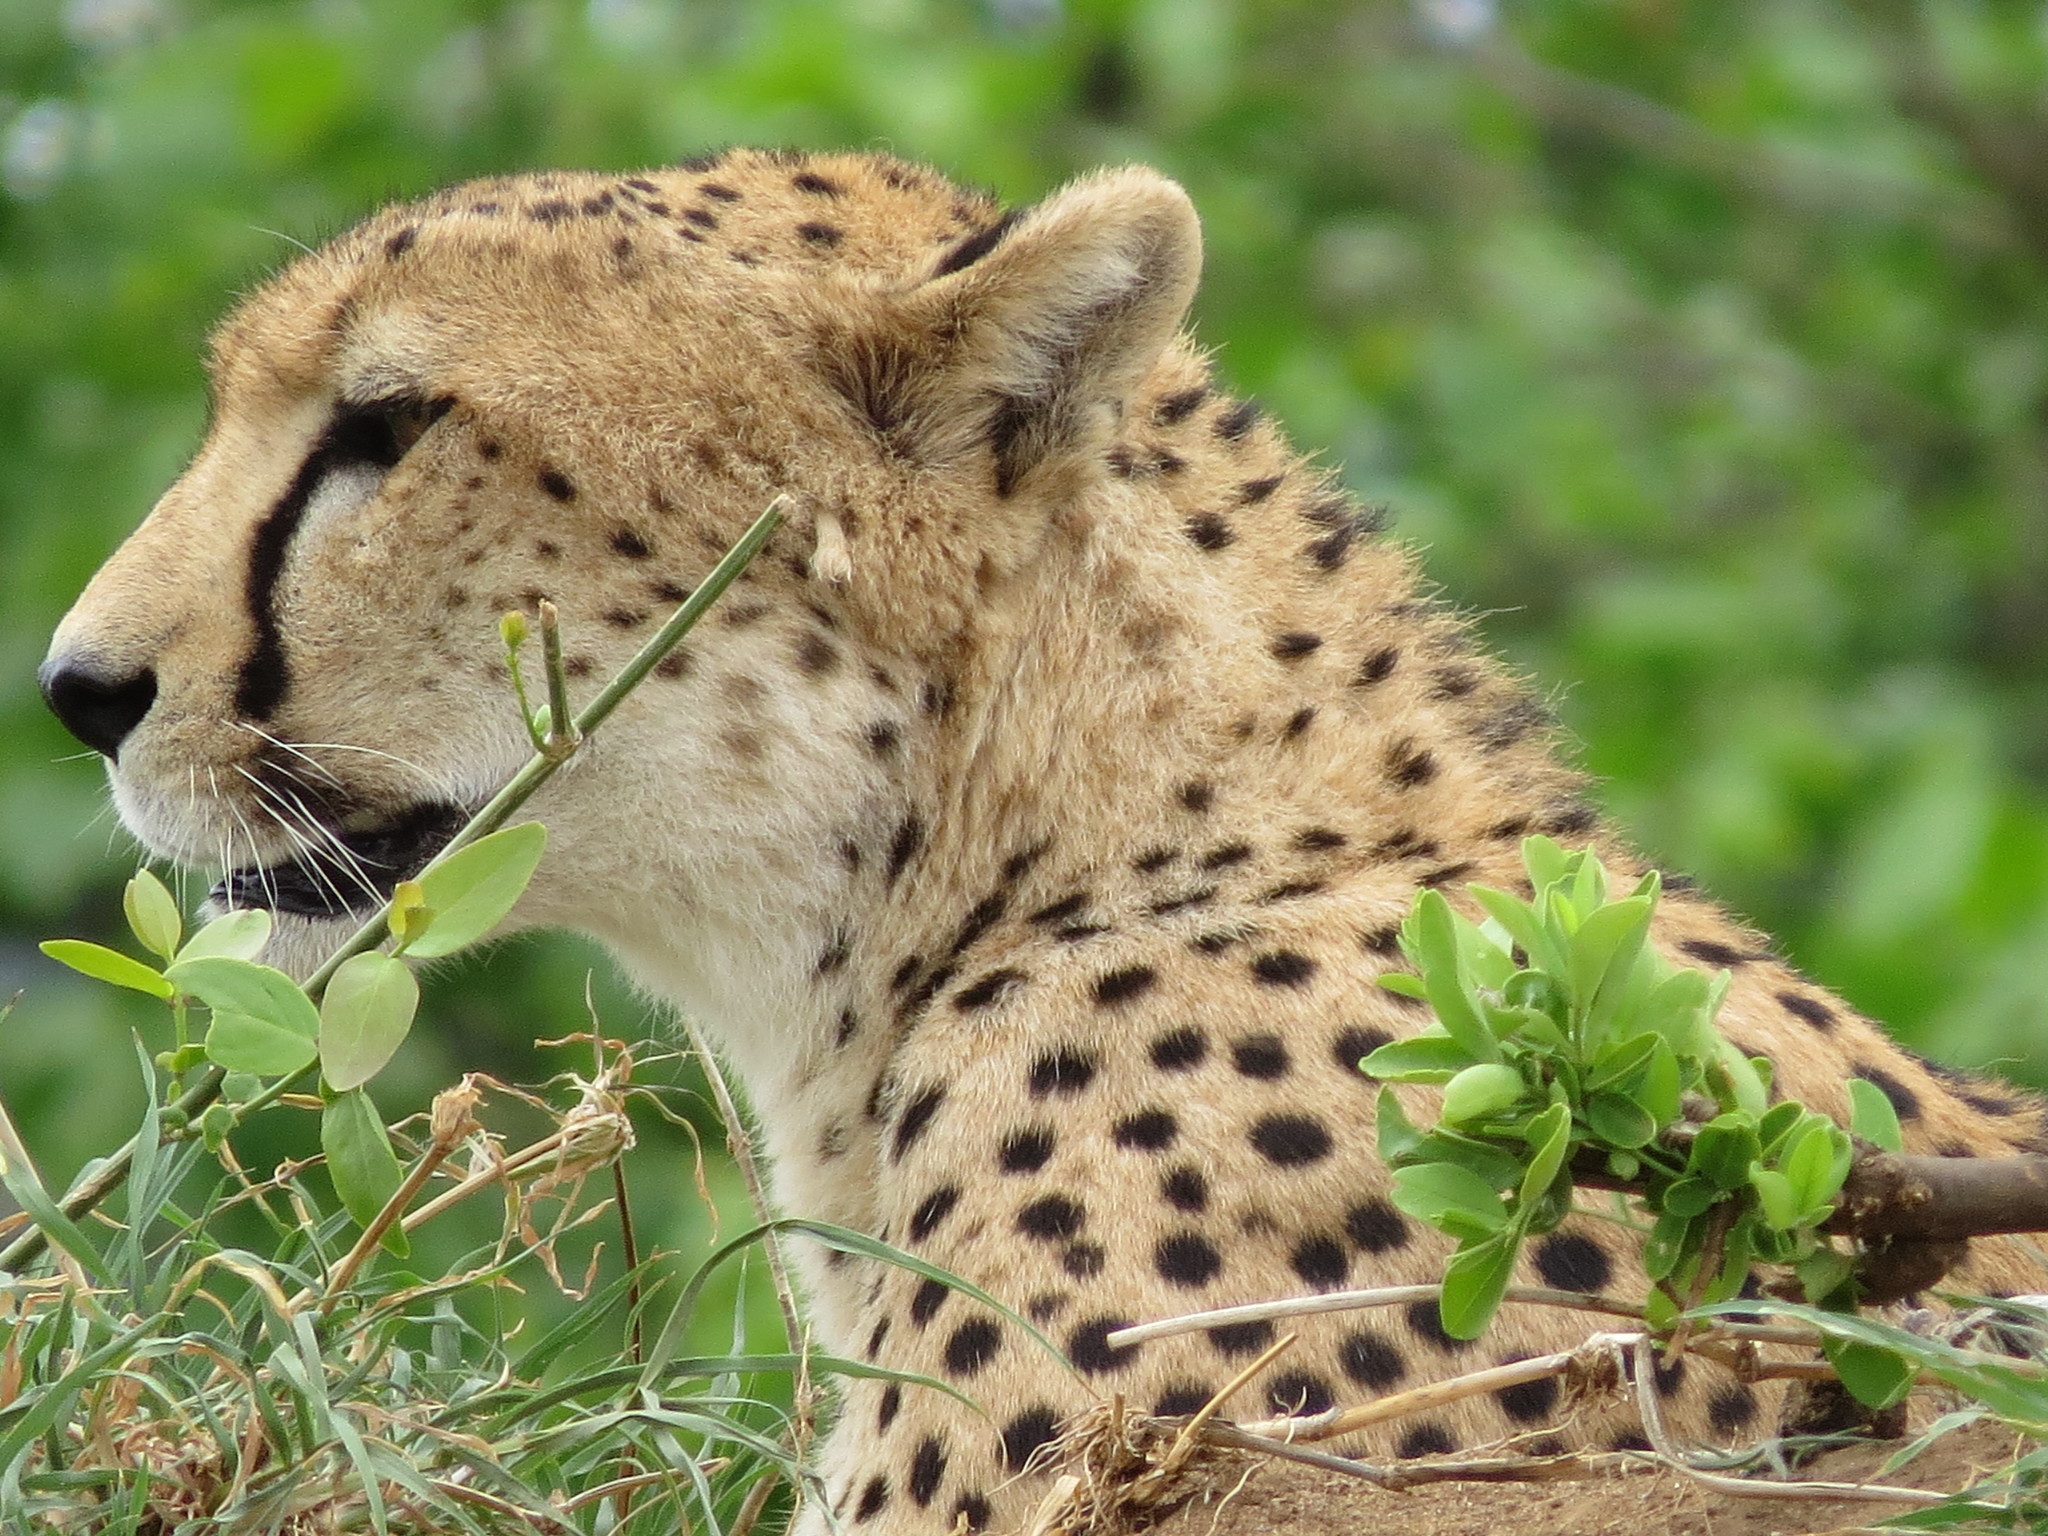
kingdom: Animalia
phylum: Chordata
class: Mammalia
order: Carnivora
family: Felidae
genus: Acinonyx
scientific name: Acinonyx jubatus
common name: Cheetah
